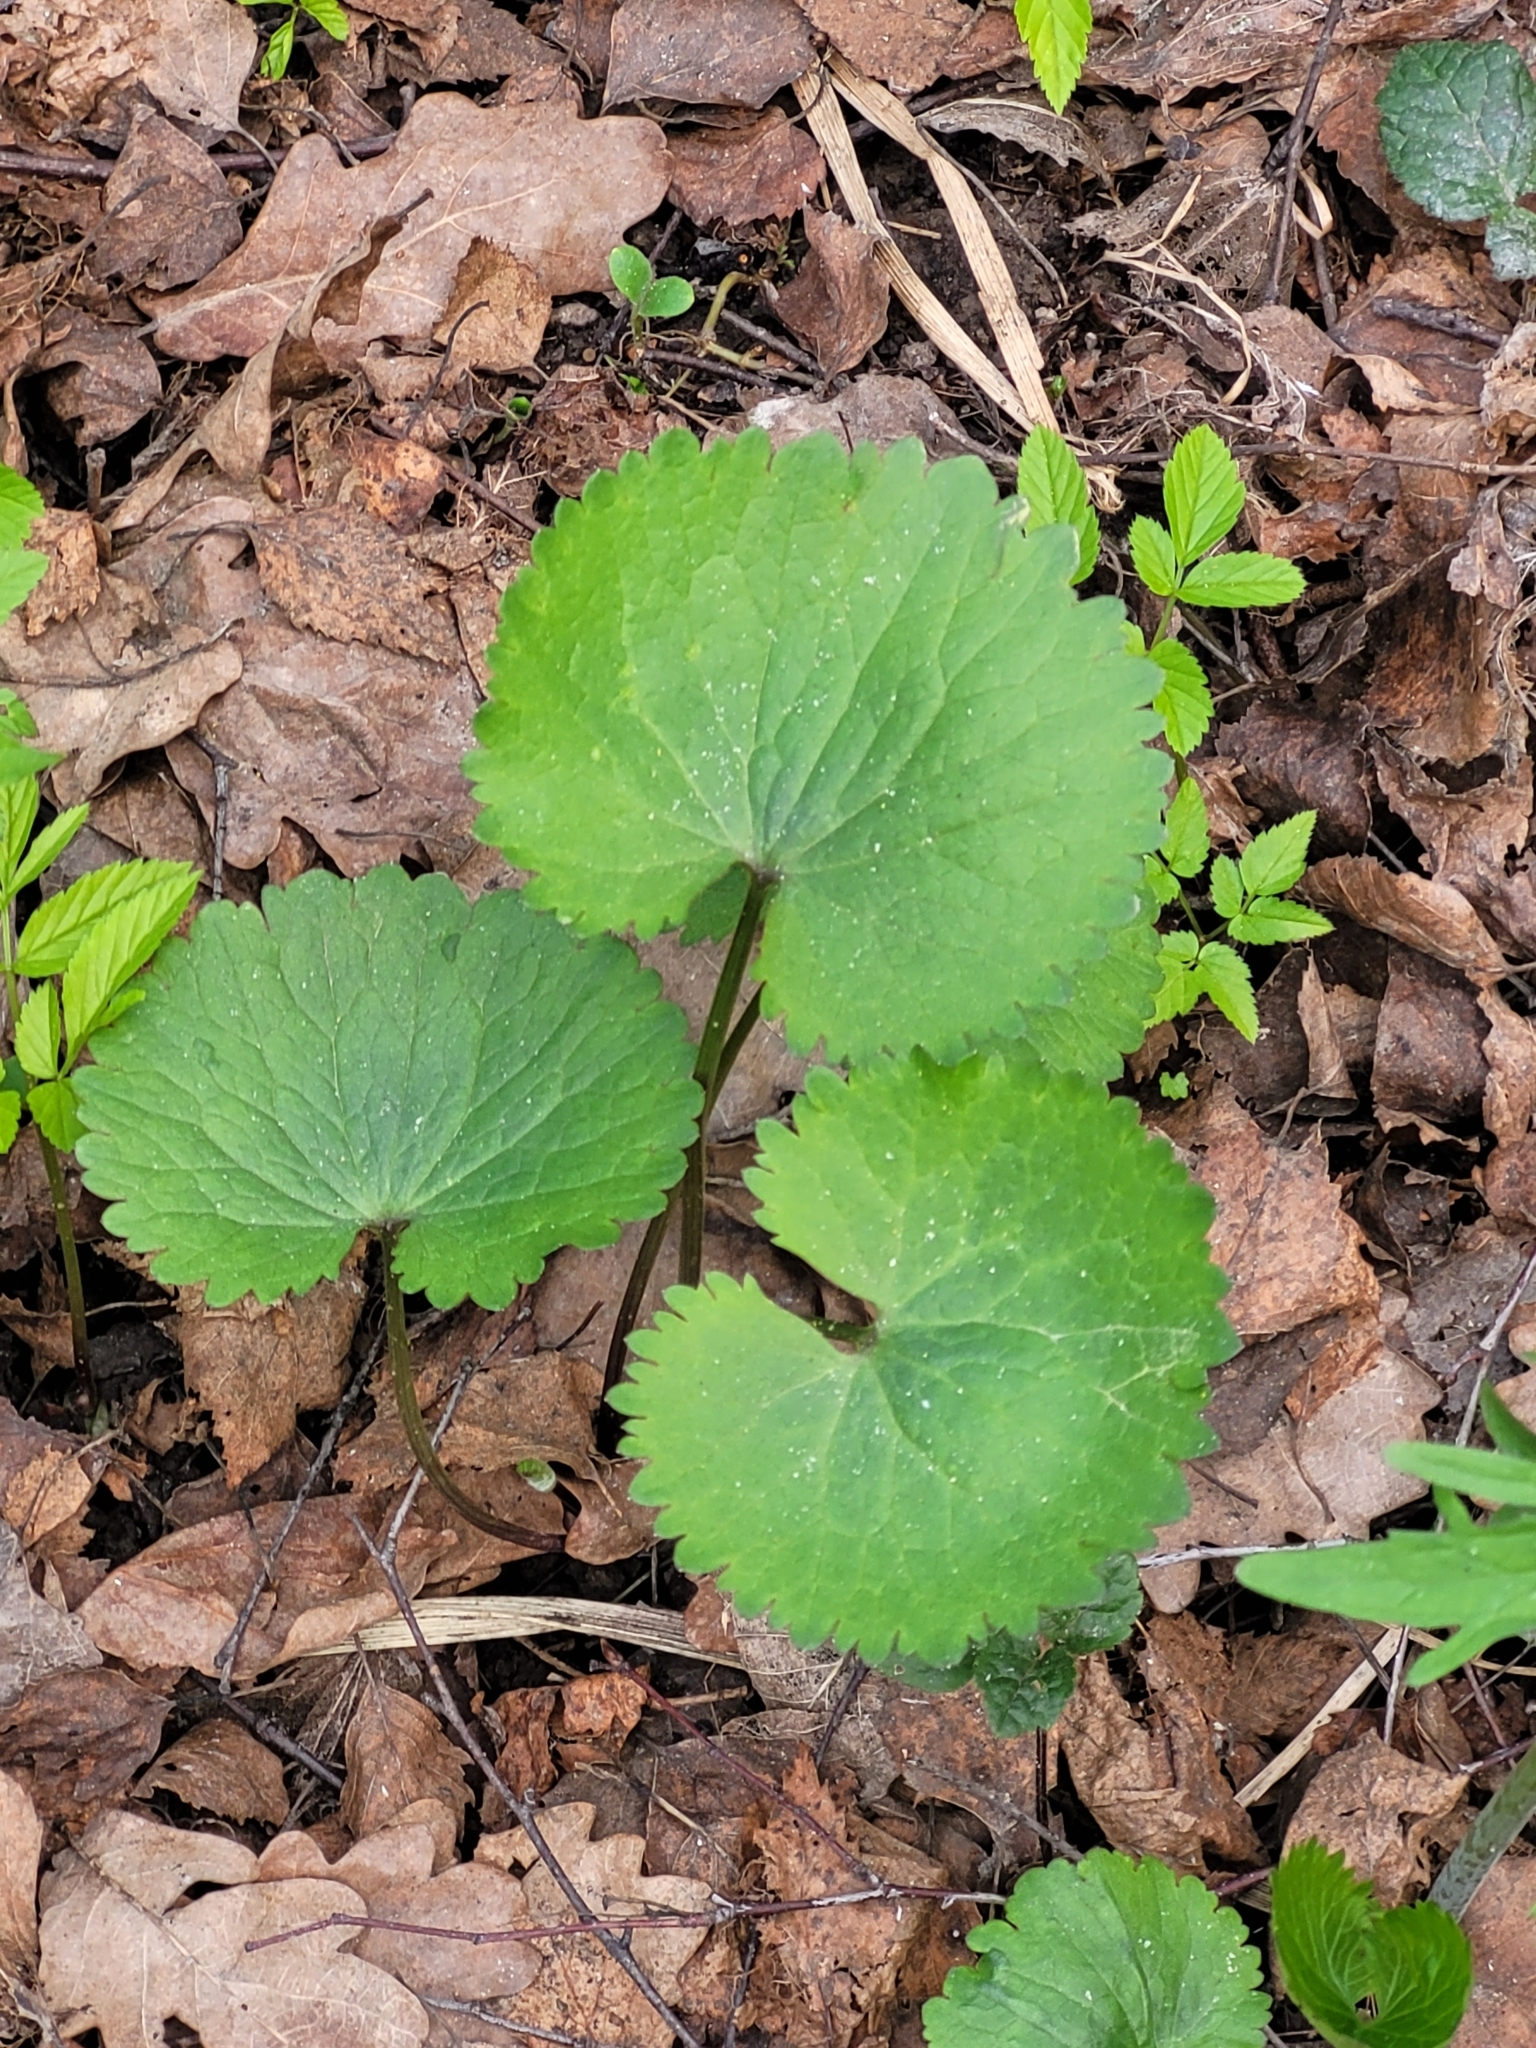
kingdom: Plantae
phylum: Tracheophyta
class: Magnoliopsida
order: Ranunculales
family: Ranunculaceae
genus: Ranunculus
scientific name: Ranunculus cassubicus
